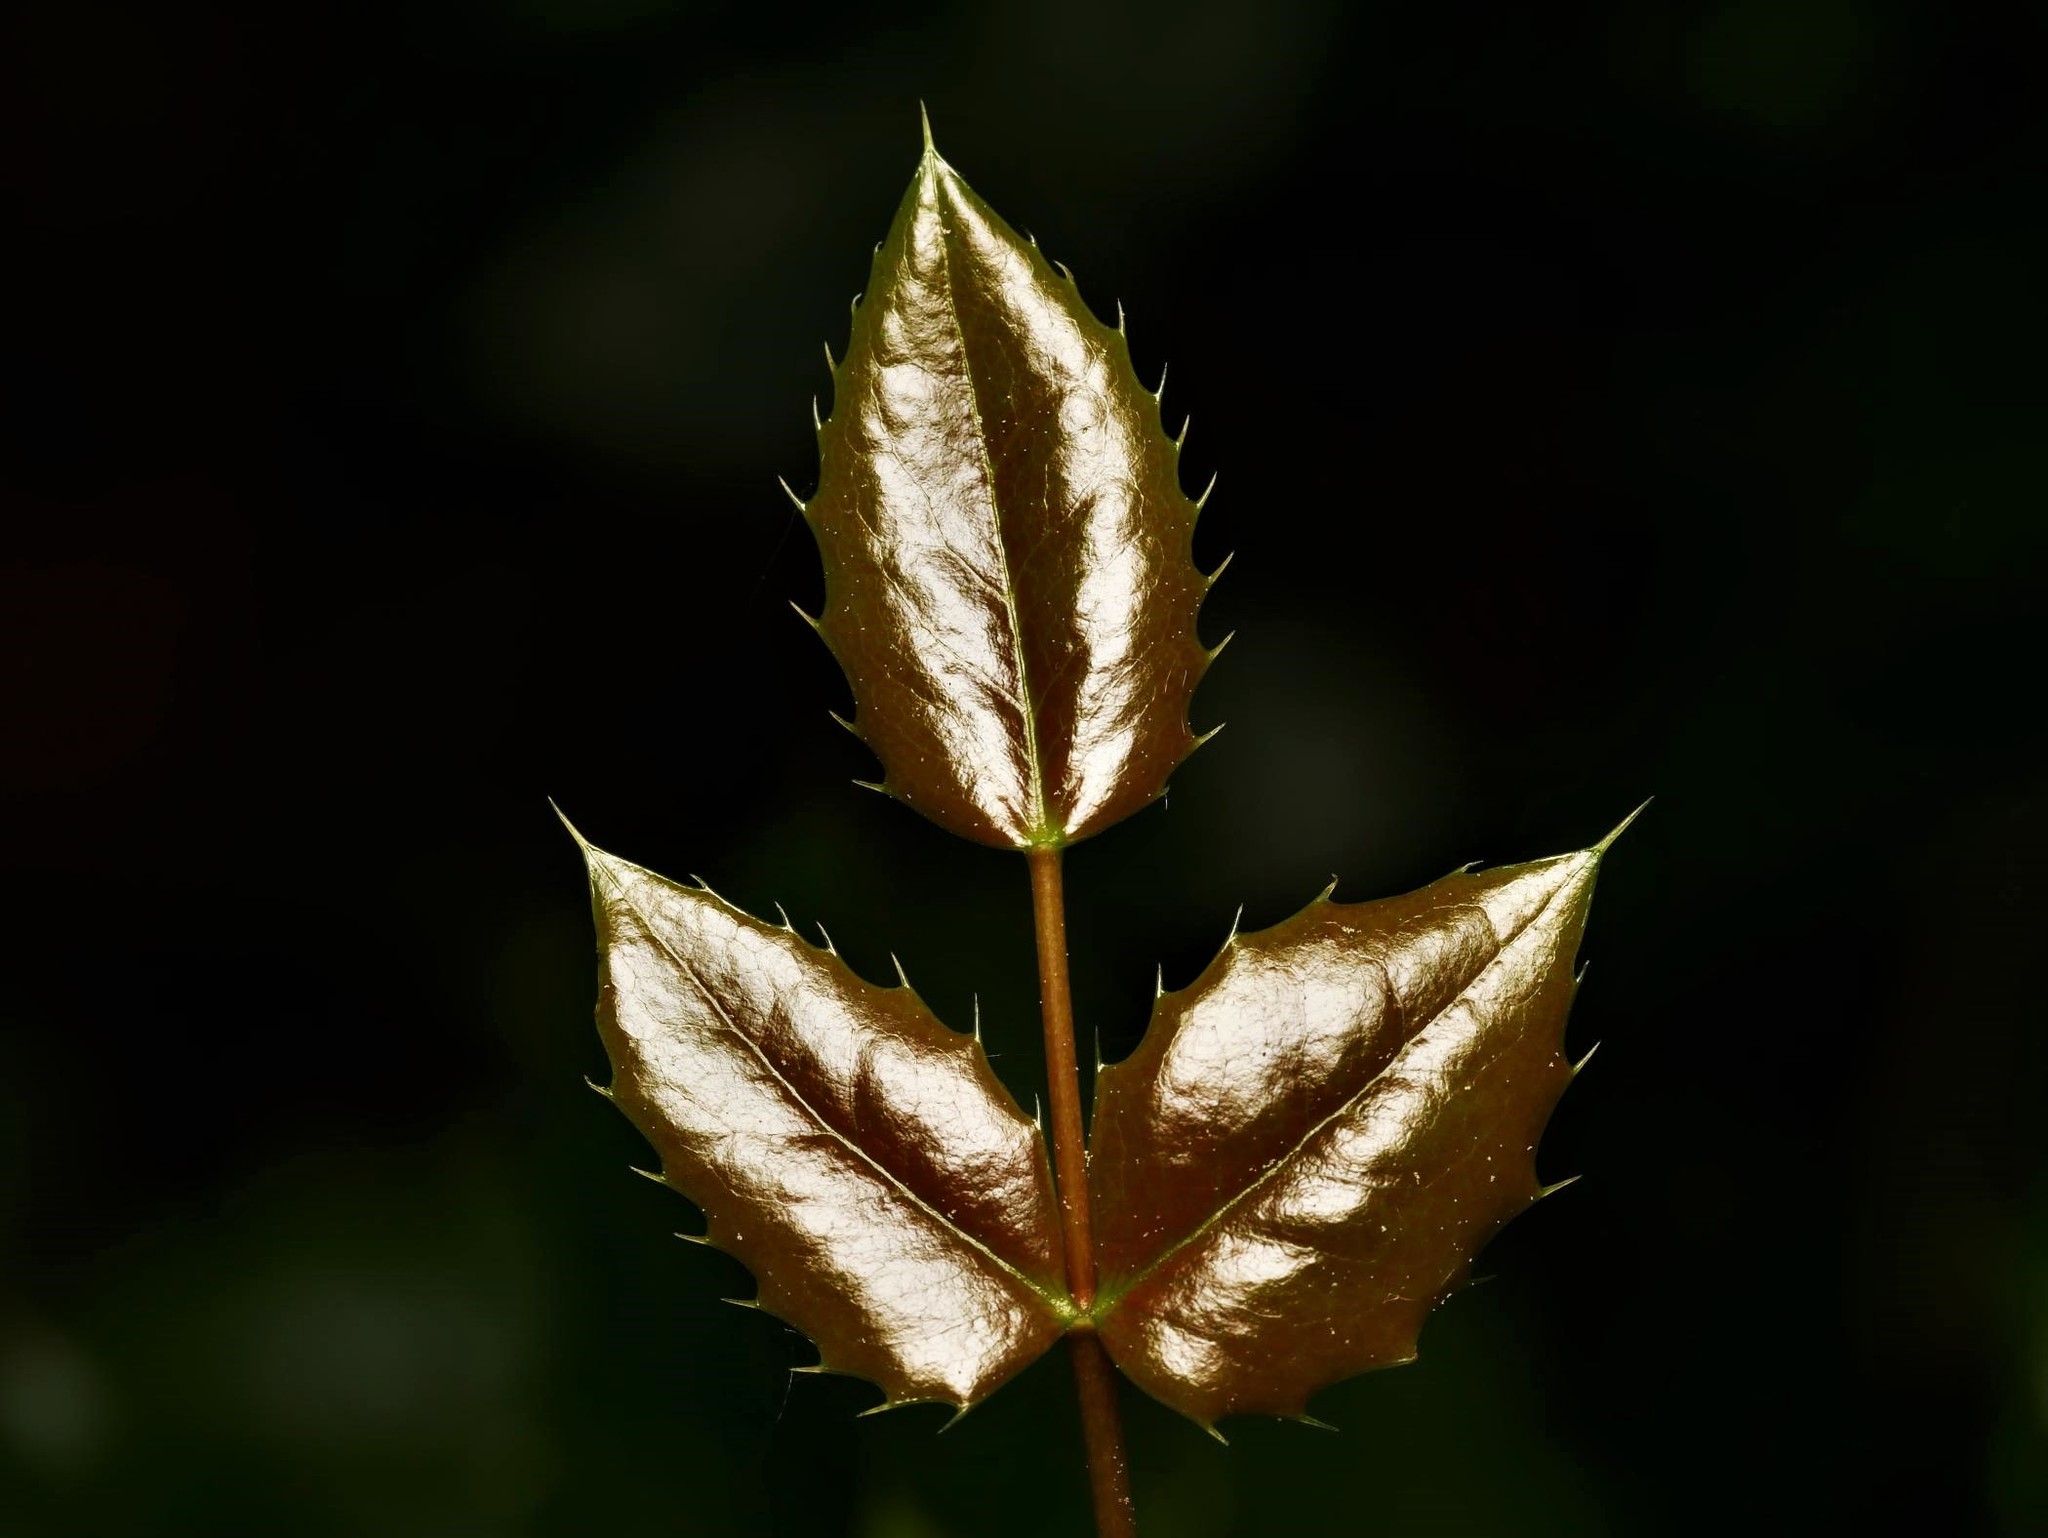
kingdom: Plantae
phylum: Tracheophyta
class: Magnoliopsida
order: Ranunculales
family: Berberidaceae
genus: Mahonia
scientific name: Mahonia aquifolium
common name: Oregon-grape
